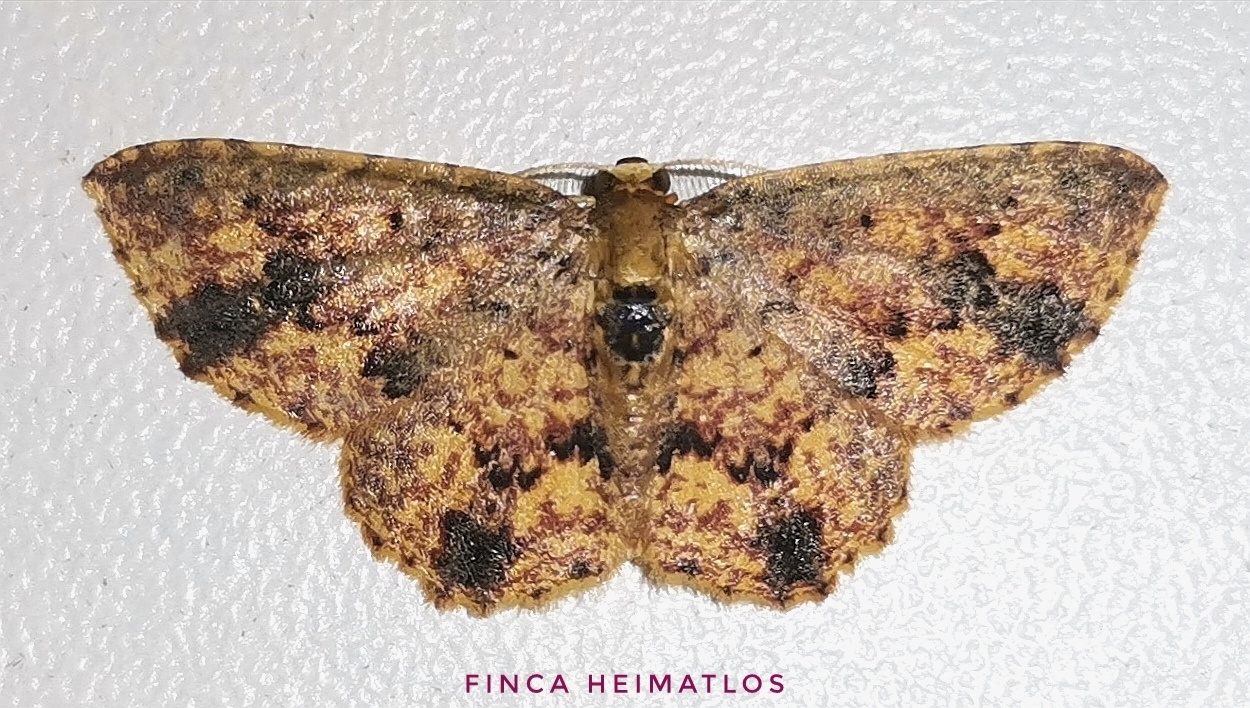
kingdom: Animalia
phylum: Arthropoda
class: Insecta
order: Lepidoptera
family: Geometridae
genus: Eois
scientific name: Eois basaliata
